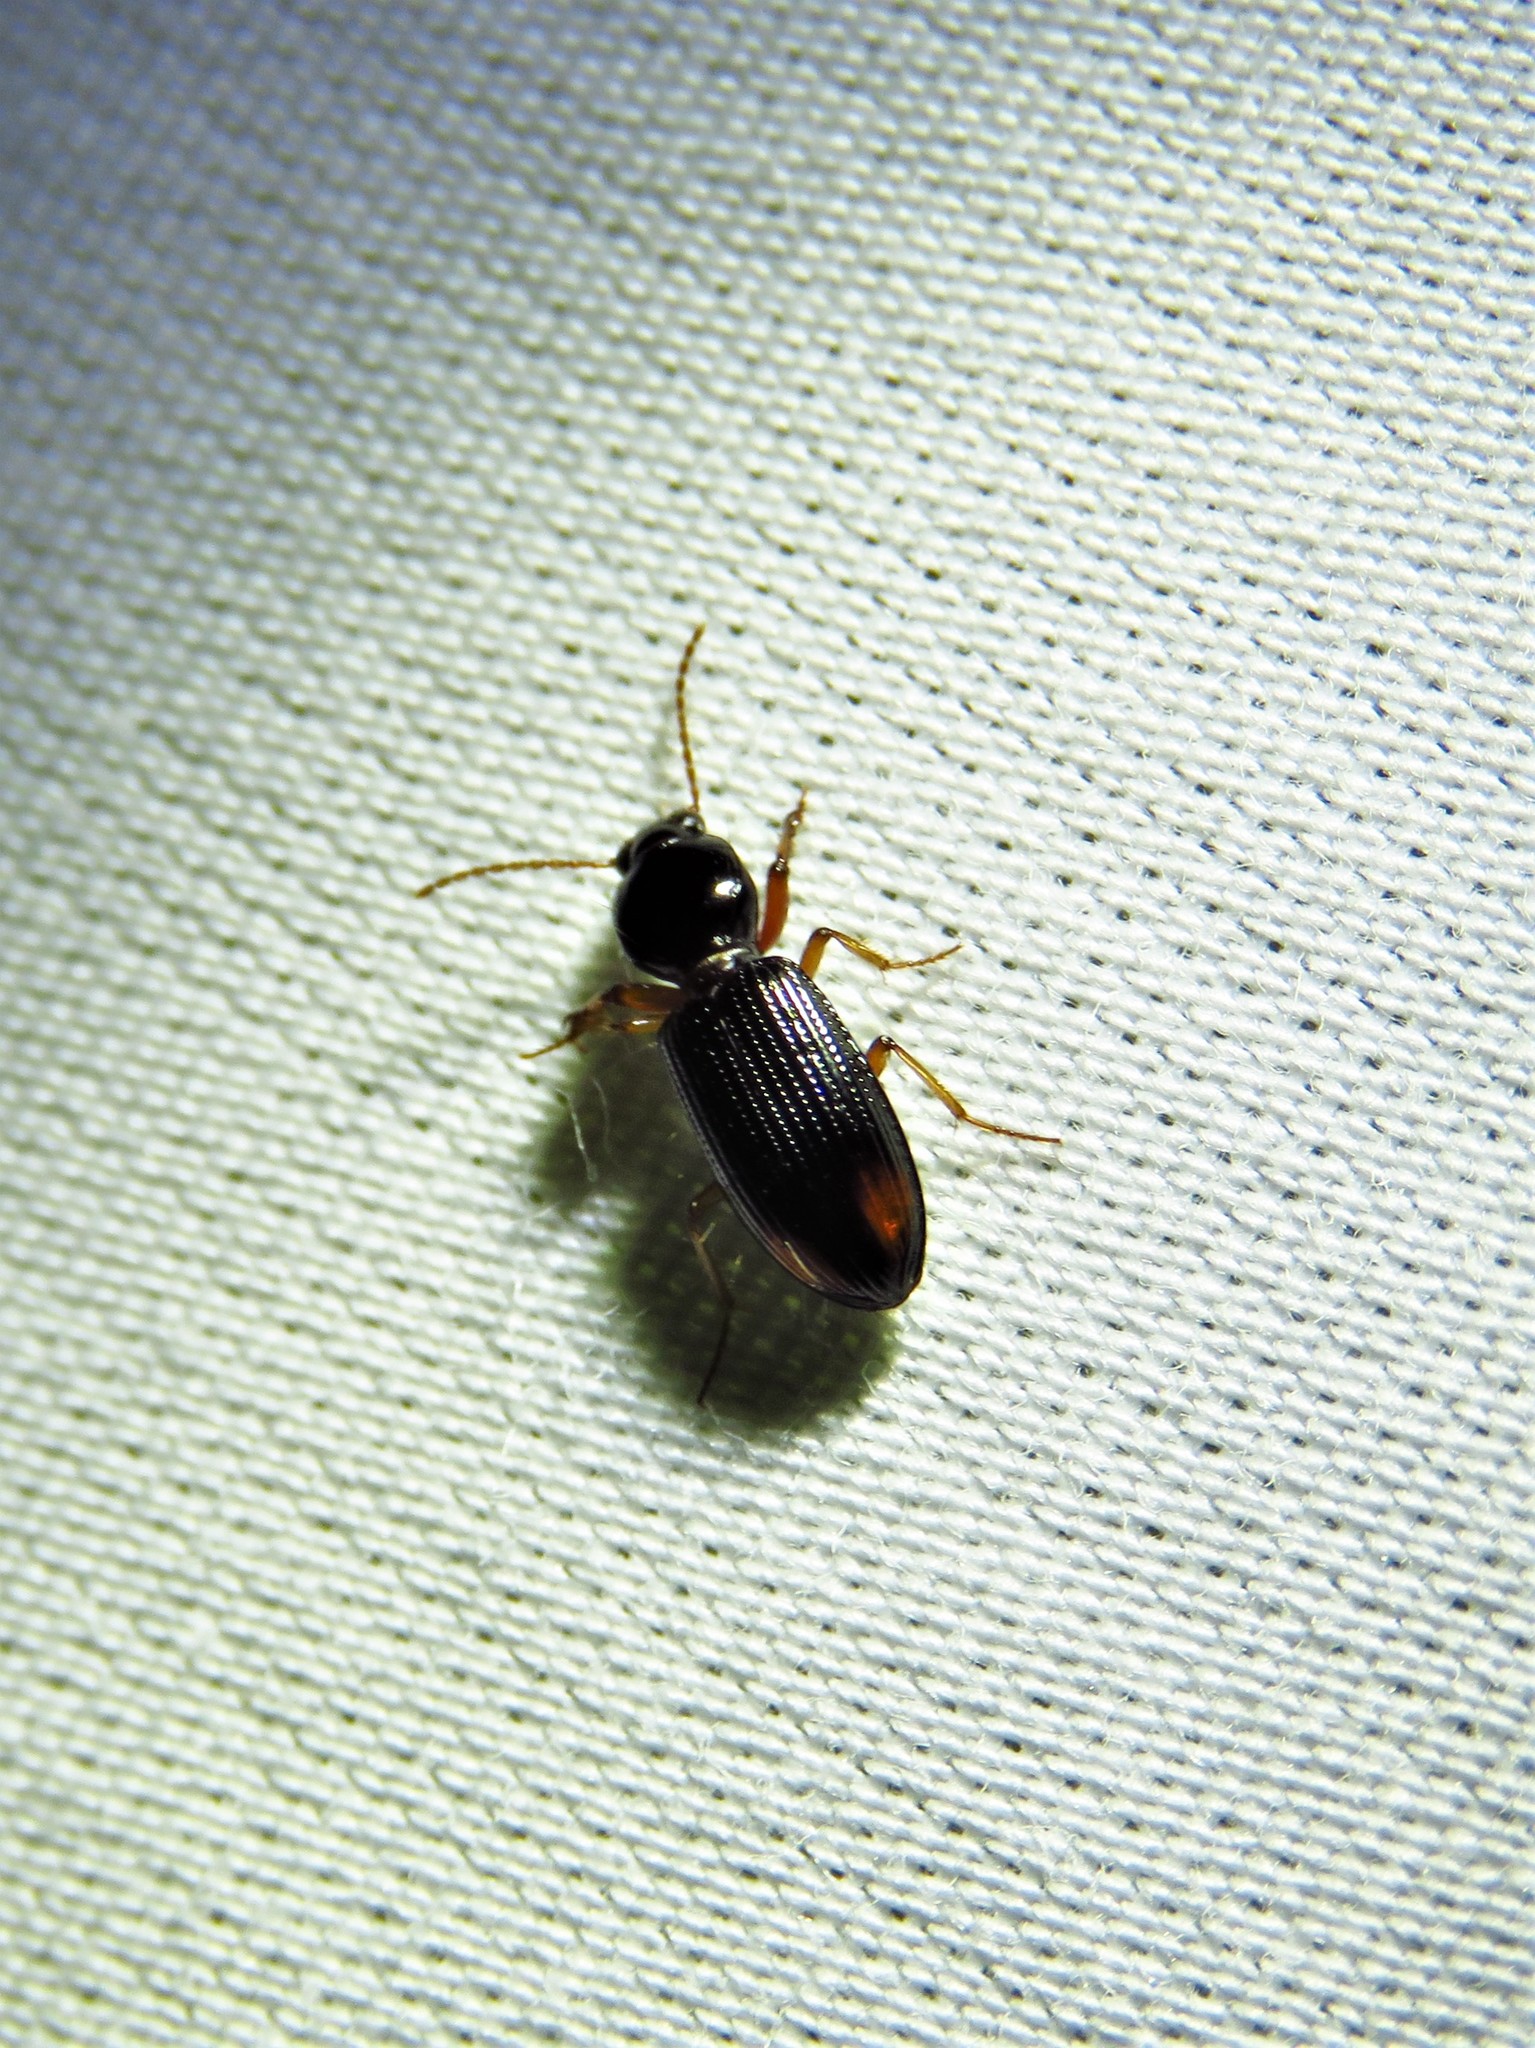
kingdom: Animalia
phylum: Arthropoda
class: Insecta
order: Coleoptera
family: Carabidae
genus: Aspidoglossa
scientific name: Aspidoglossa subangulata
